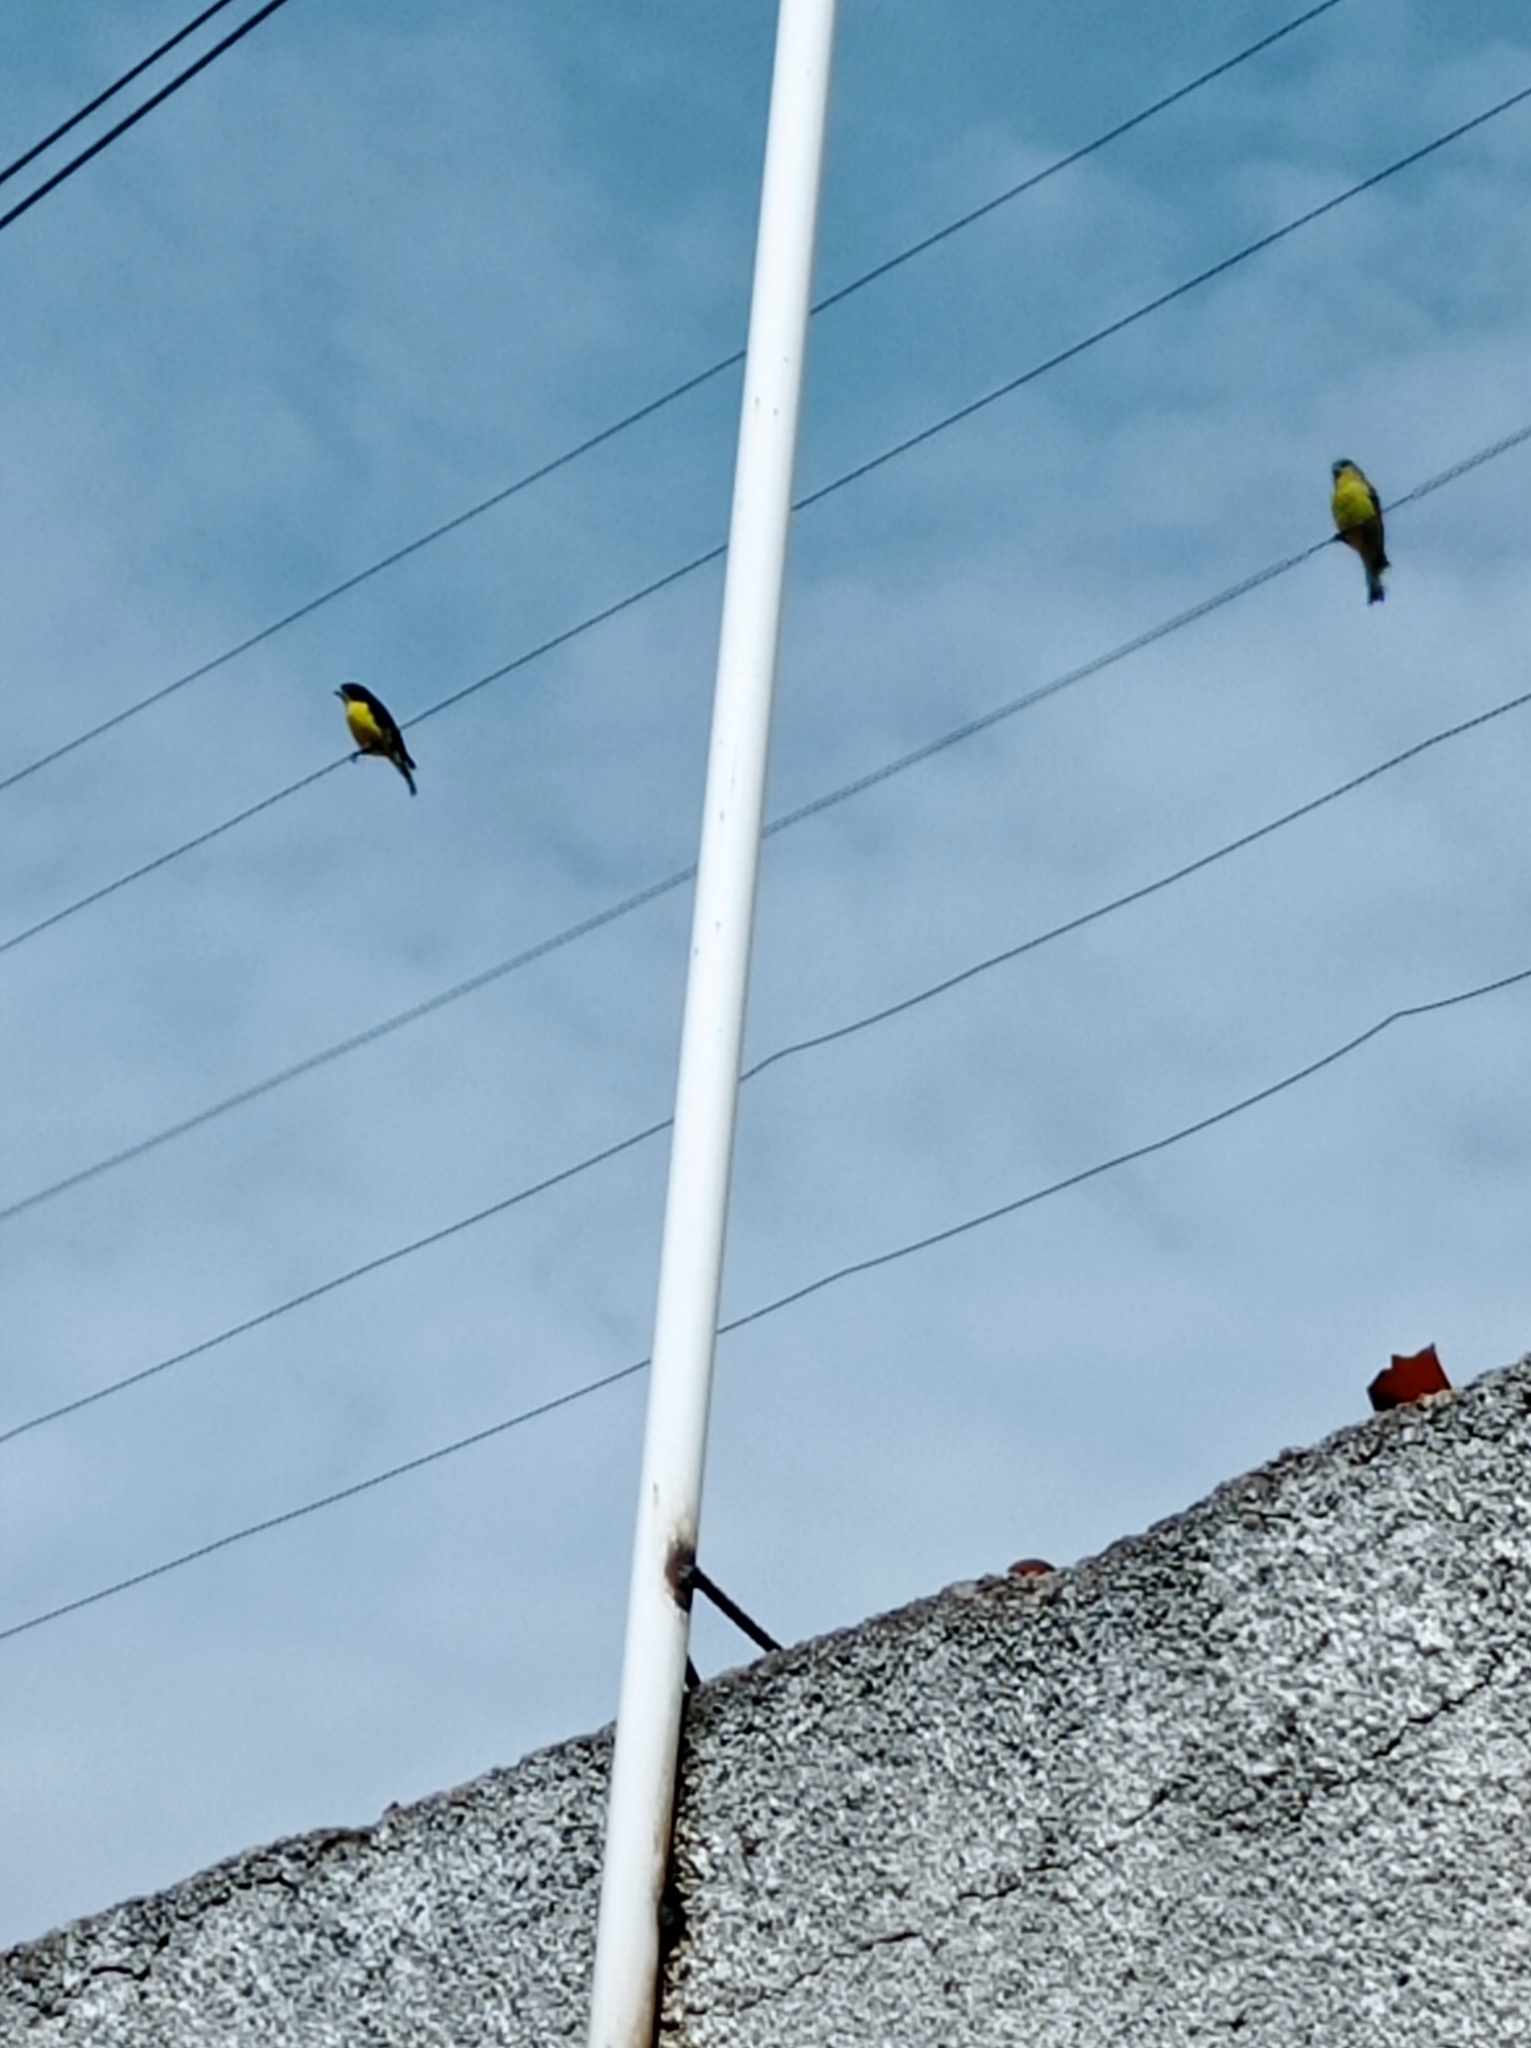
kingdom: Animalia
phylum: Chordata
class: Aves
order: Passeriformes
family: Fringillidae
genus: Spinus
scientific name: Spinus psaltria
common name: Lesser goldfinch
